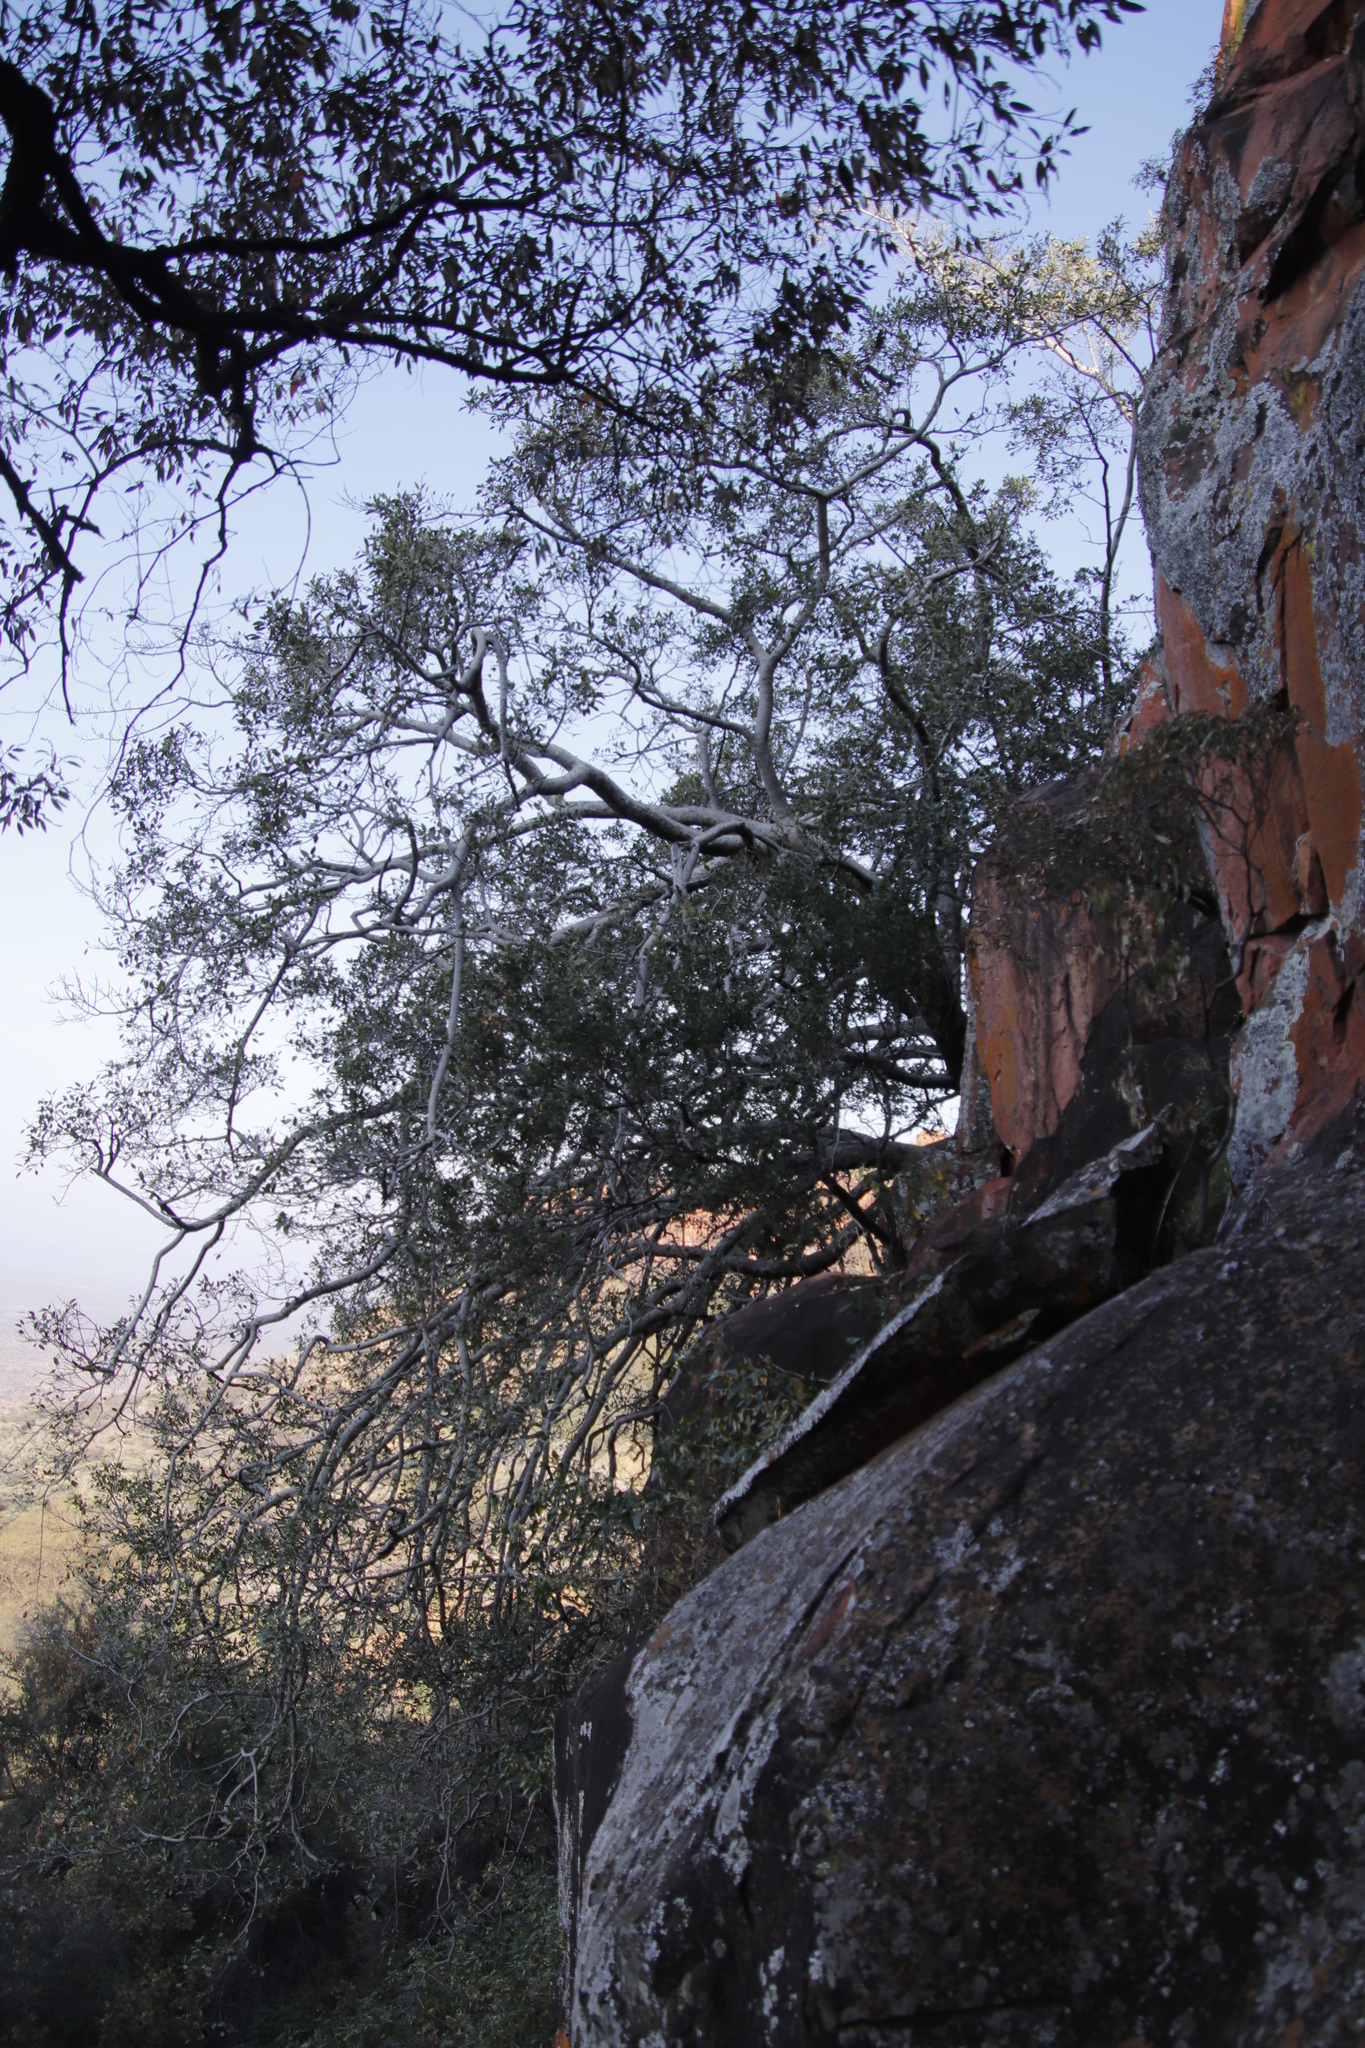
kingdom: Plantae
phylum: Tracheophyta
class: Magnoliopsida
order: Rosales
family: Moraceae
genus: Ficus
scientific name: Ficus cordata
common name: Namaqua rock fig
